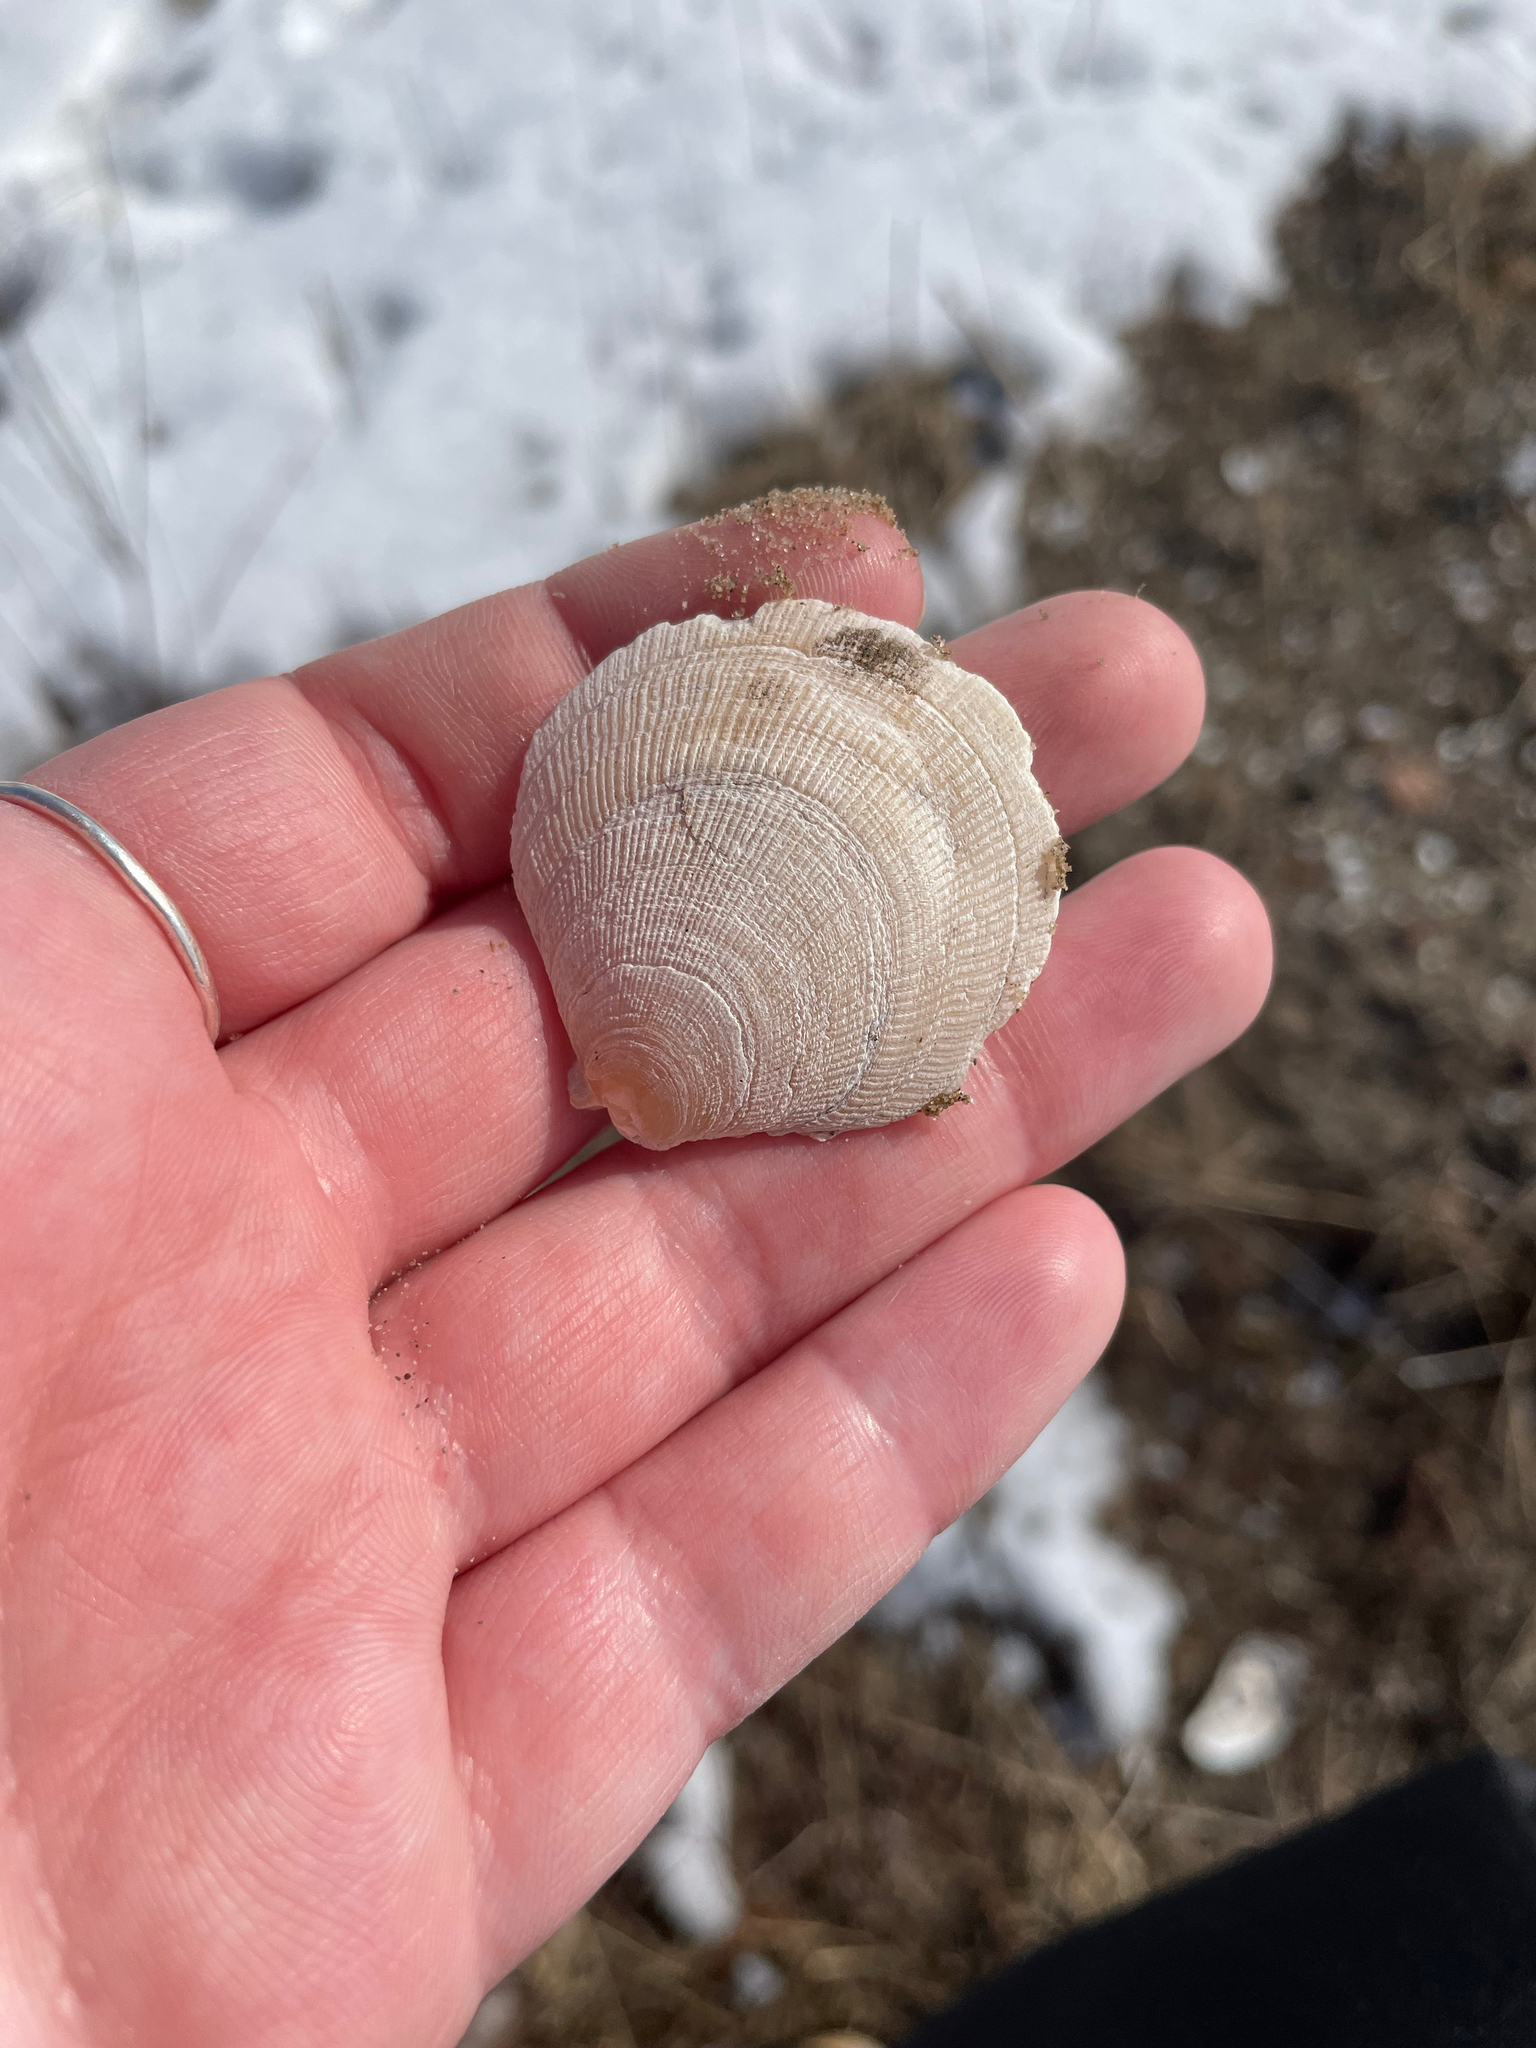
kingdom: Animalia
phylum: Mollusca
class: Bivalvia
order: Pectinida
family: Pectinidae
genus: Placopecten
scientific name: Placopecten magellanicus
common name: American sea scallop
